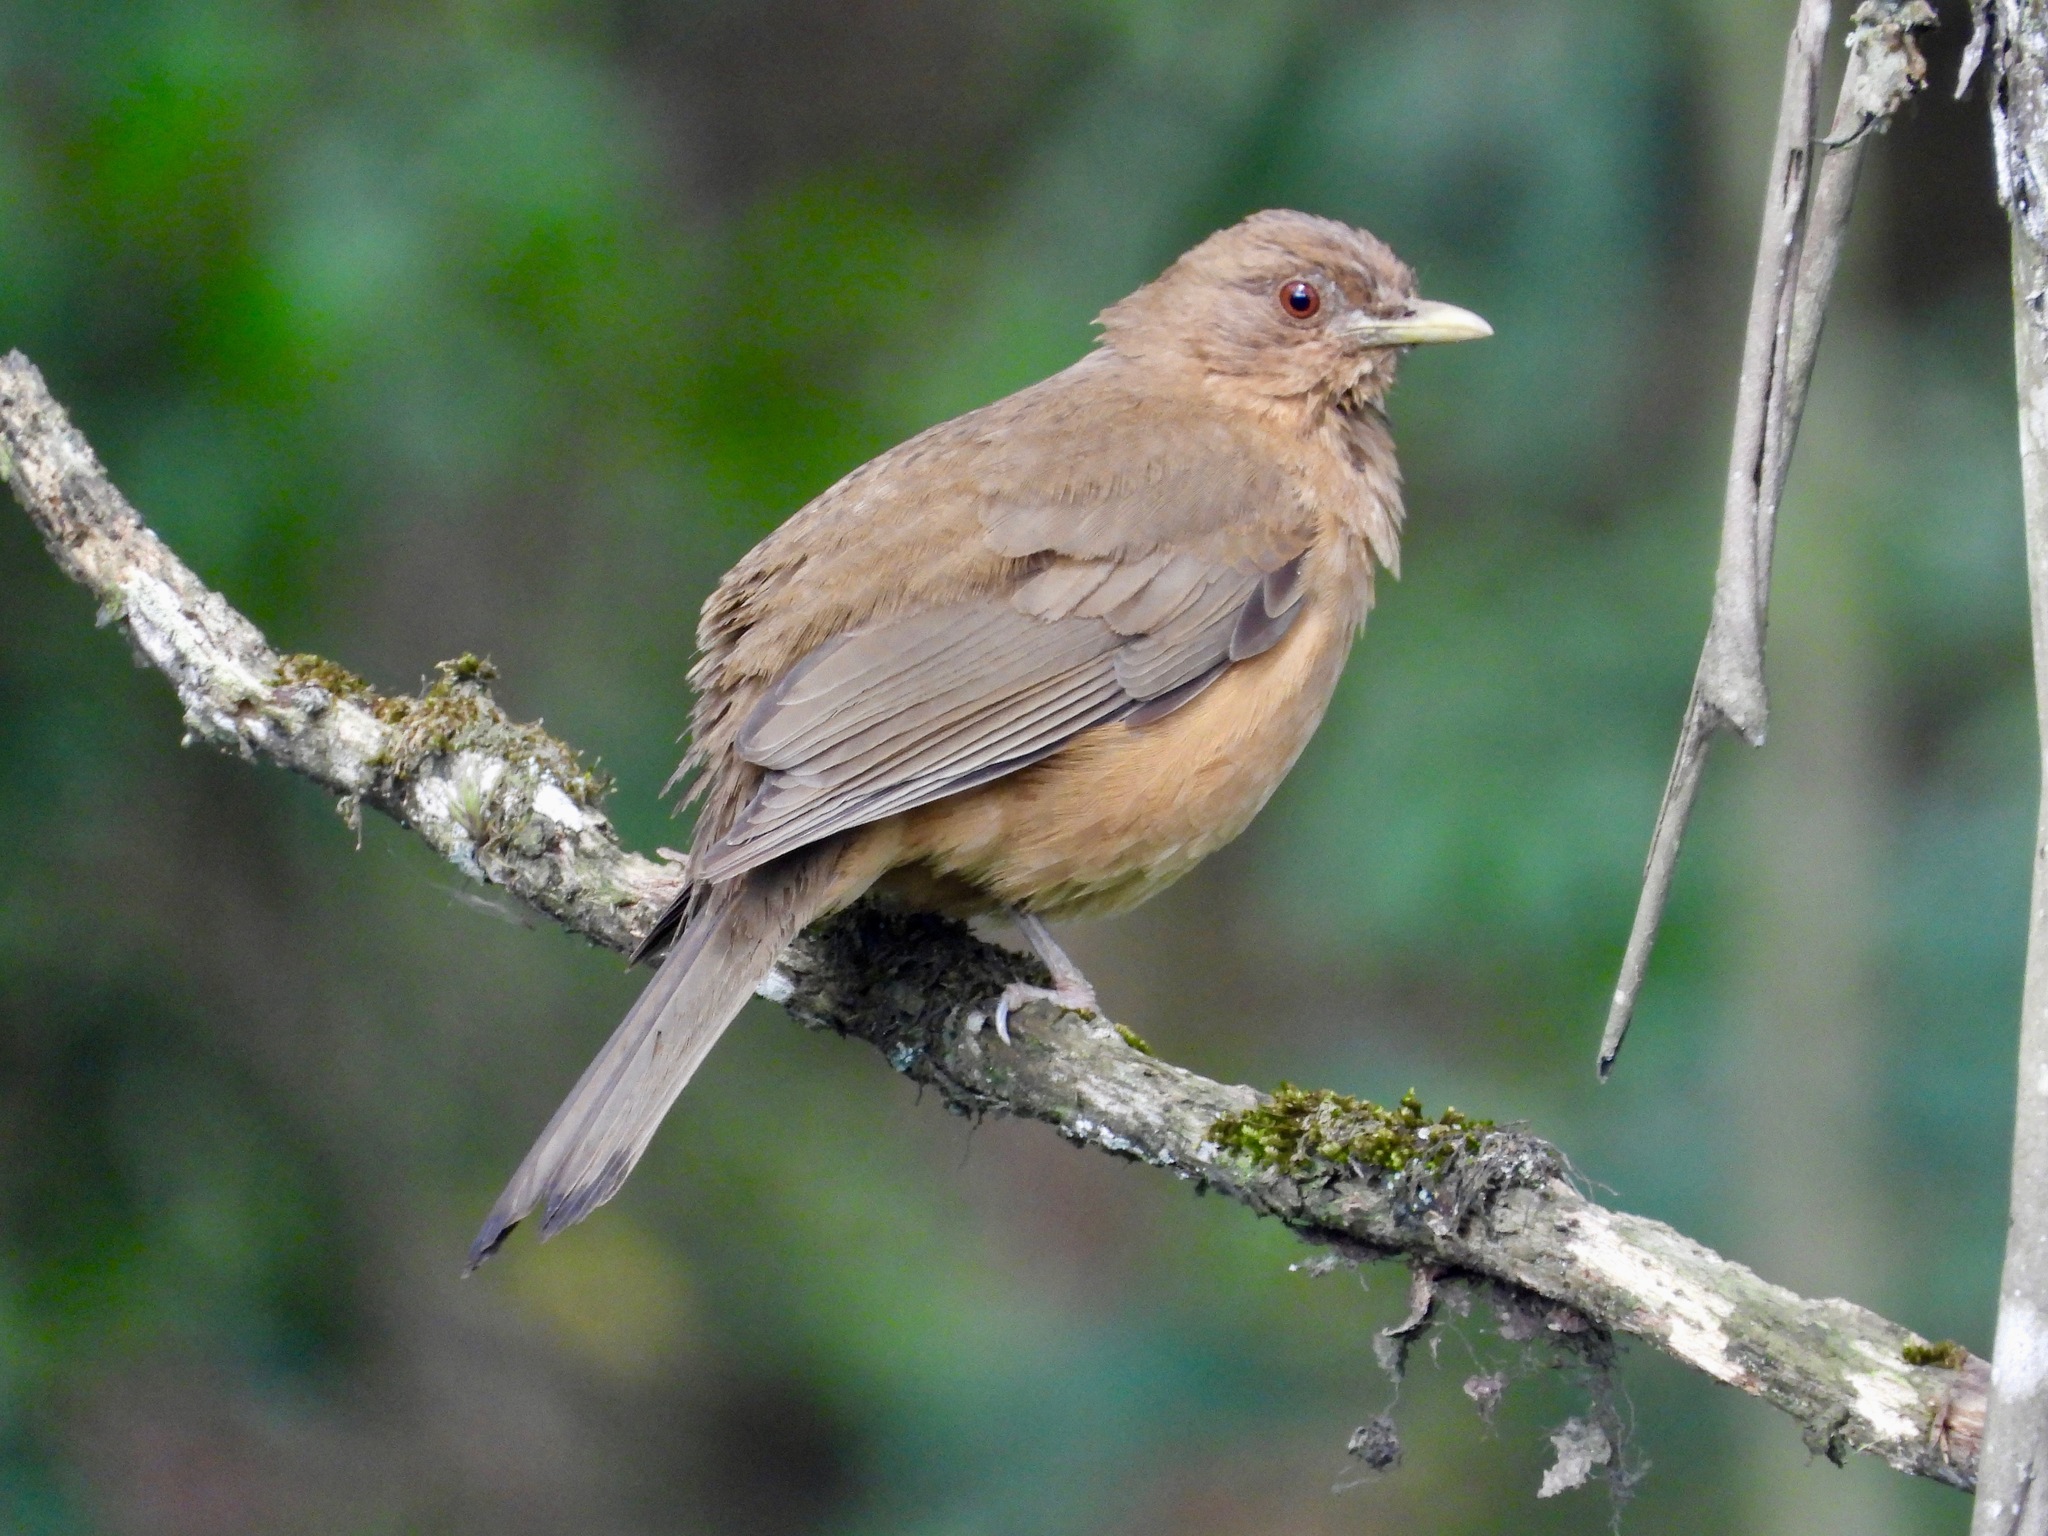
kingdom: Animalia
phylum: Chordata
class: Aves
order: Passeriformes
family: Turdidae
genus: Turdus
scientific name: Turdus grayi
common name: Clay-colored thrush
